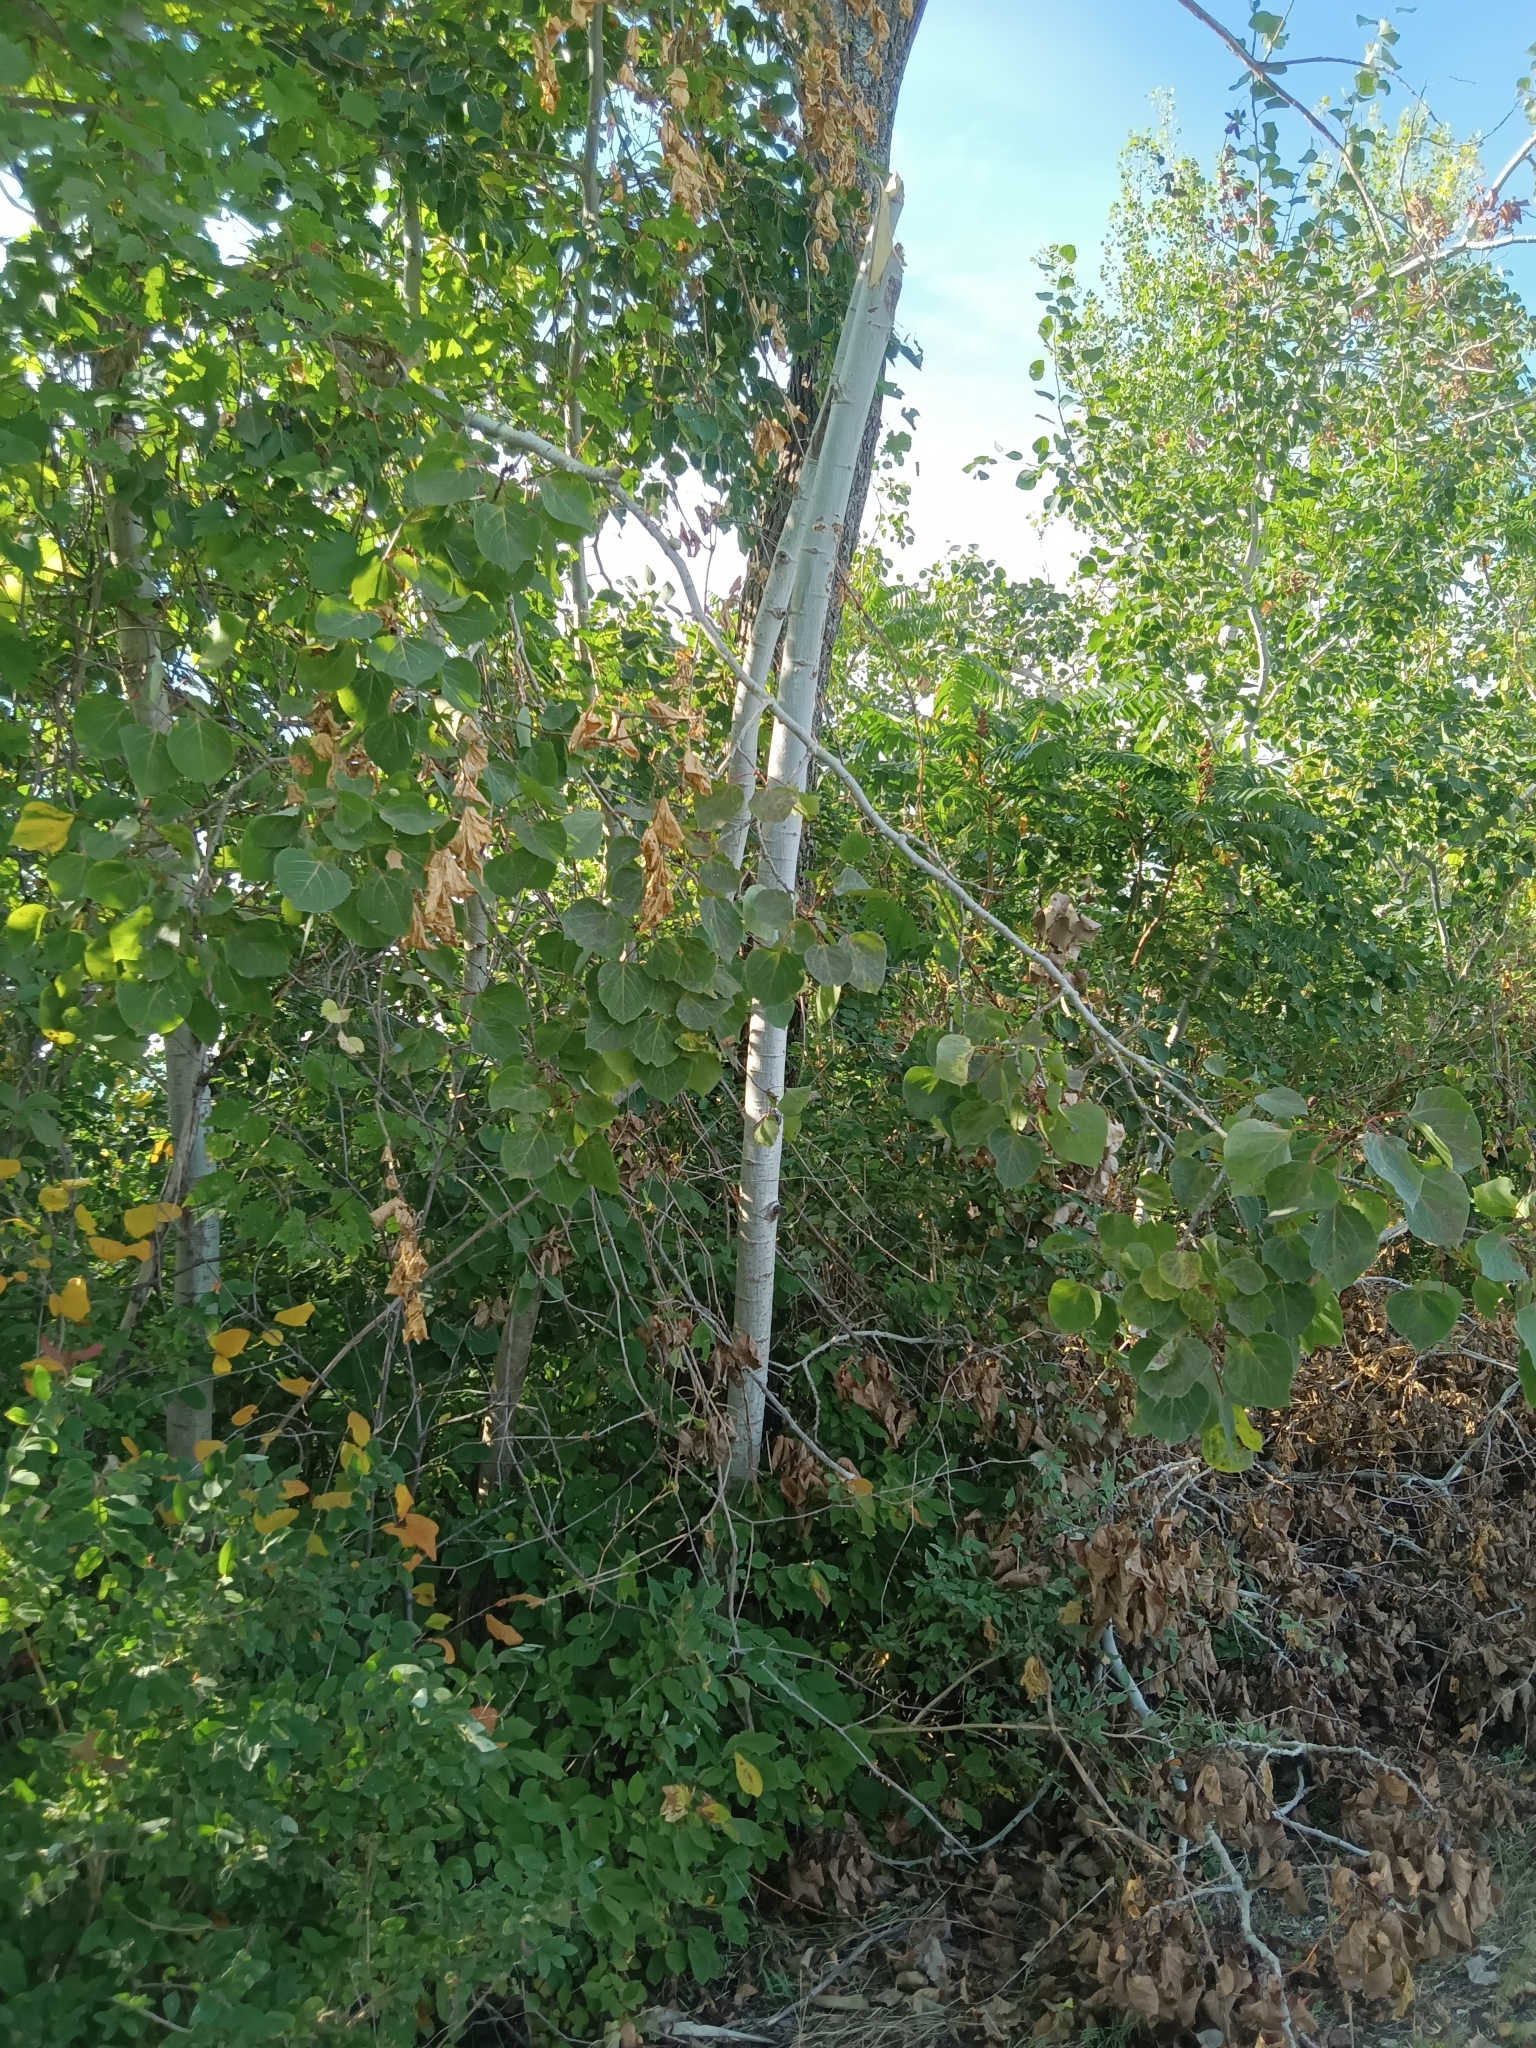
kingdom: Plantae
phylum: Tracheophyta
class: Magnoliopsida
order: Malpighiales
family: Salicaceae
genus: Populus
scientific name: Populus tremuloides
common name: Quaking aspen
